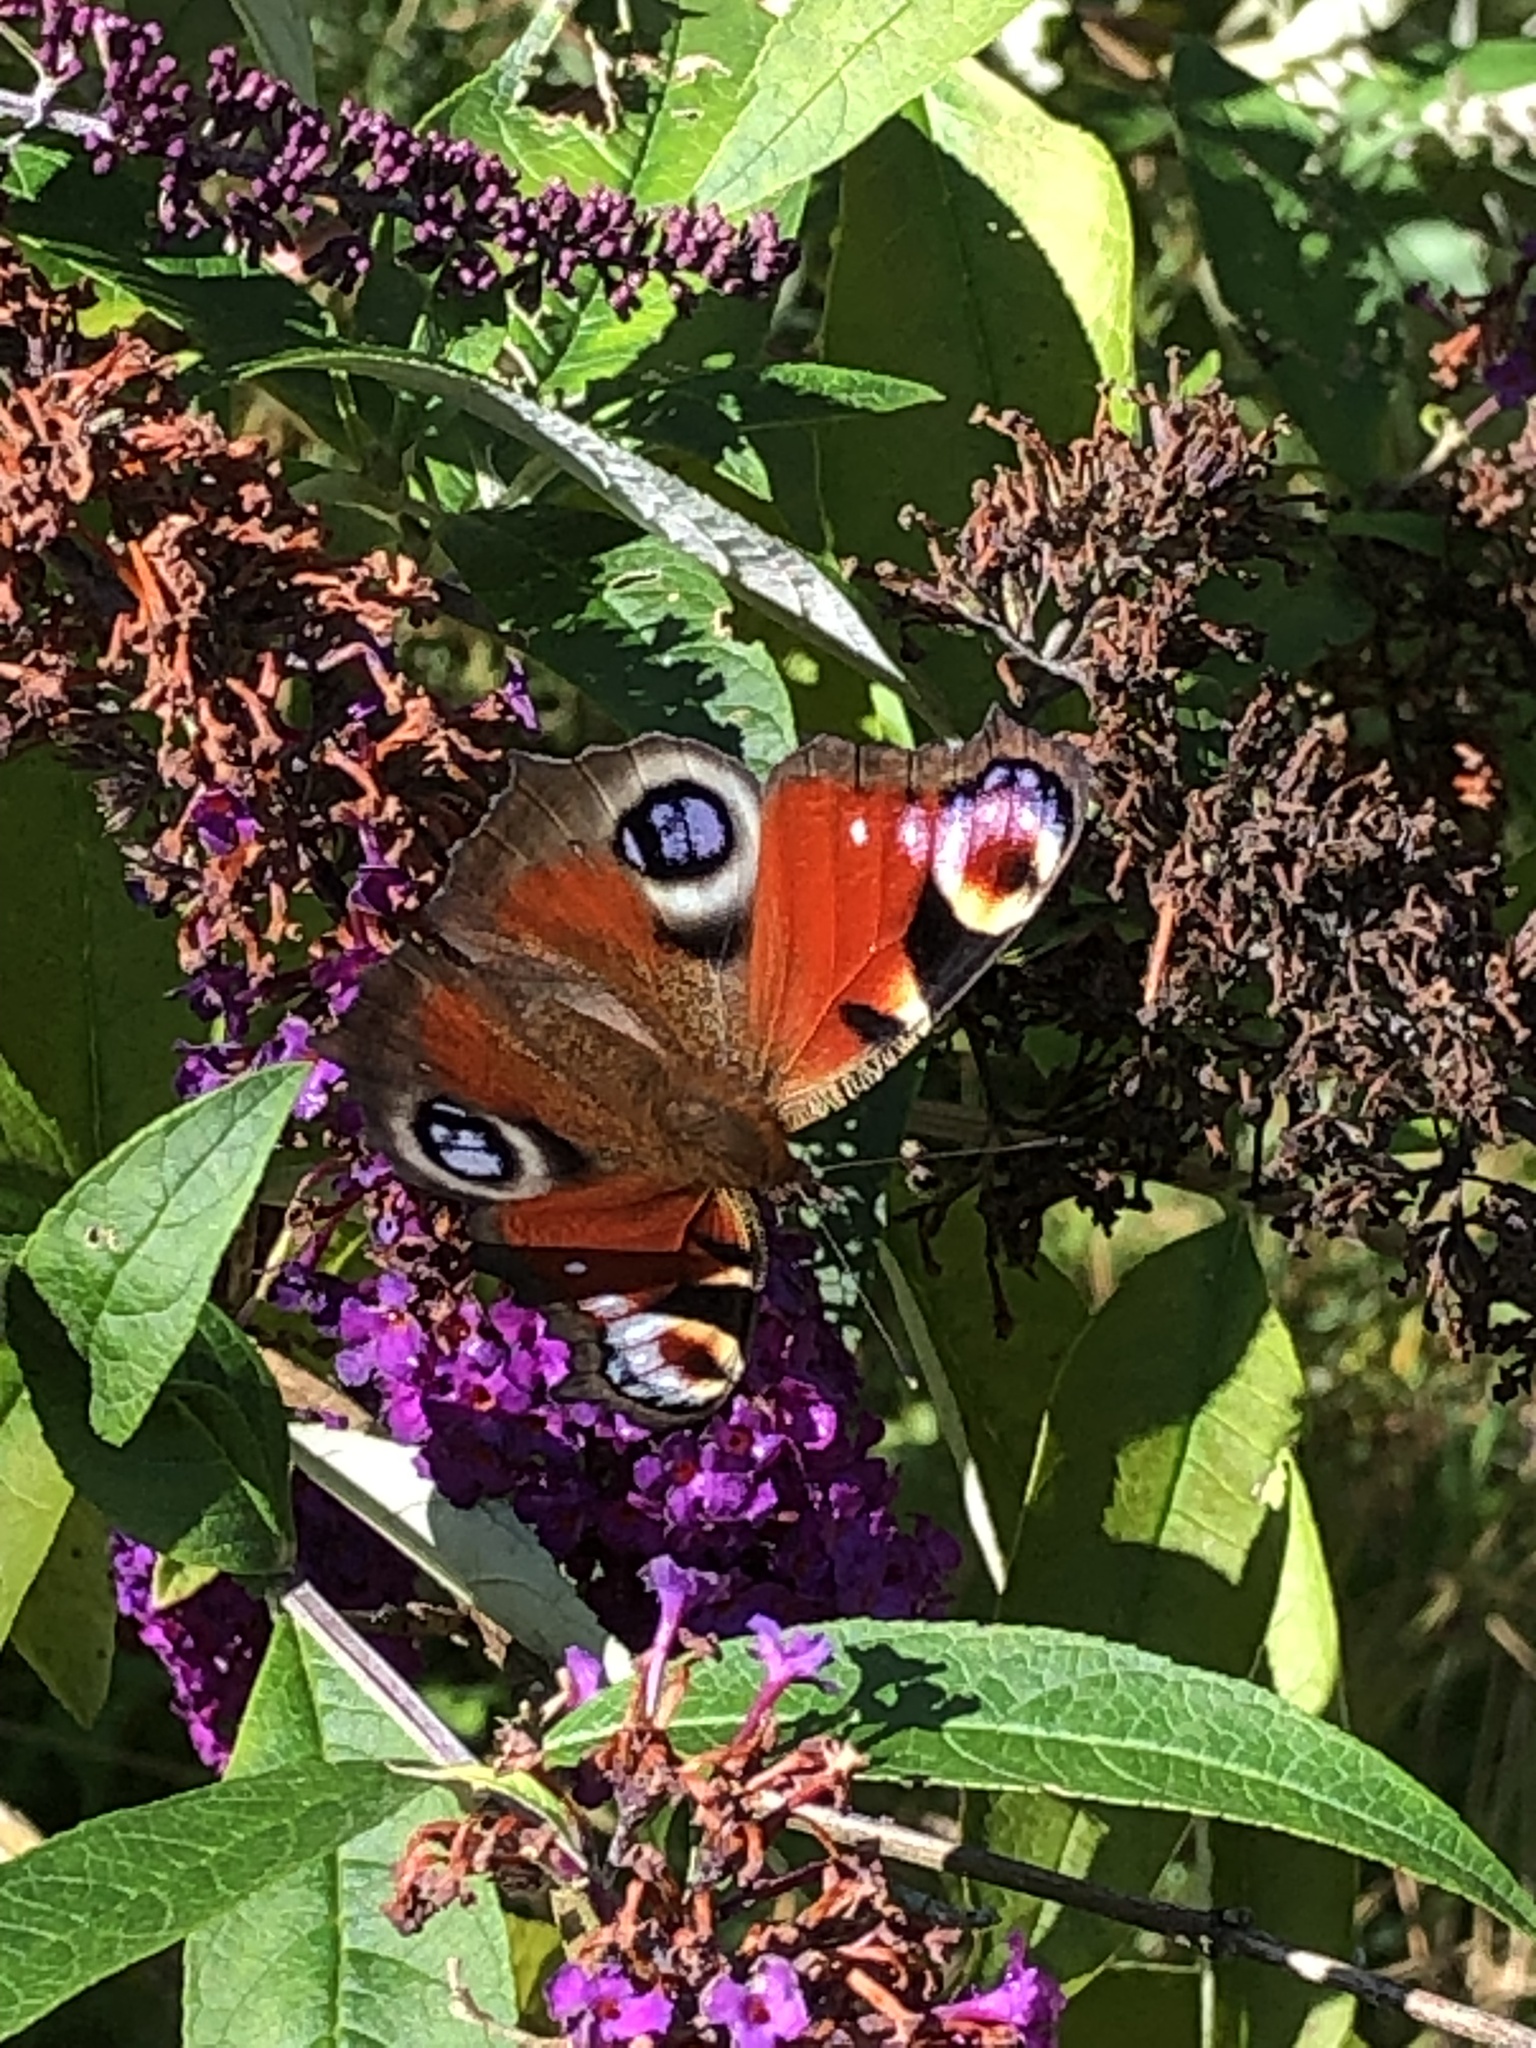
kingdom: Animalia
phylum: Arthropoda
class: Insecta
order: Lepidoptera
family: Nymphalidae
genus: Aglais
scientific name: Aglais io
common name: Peacock
